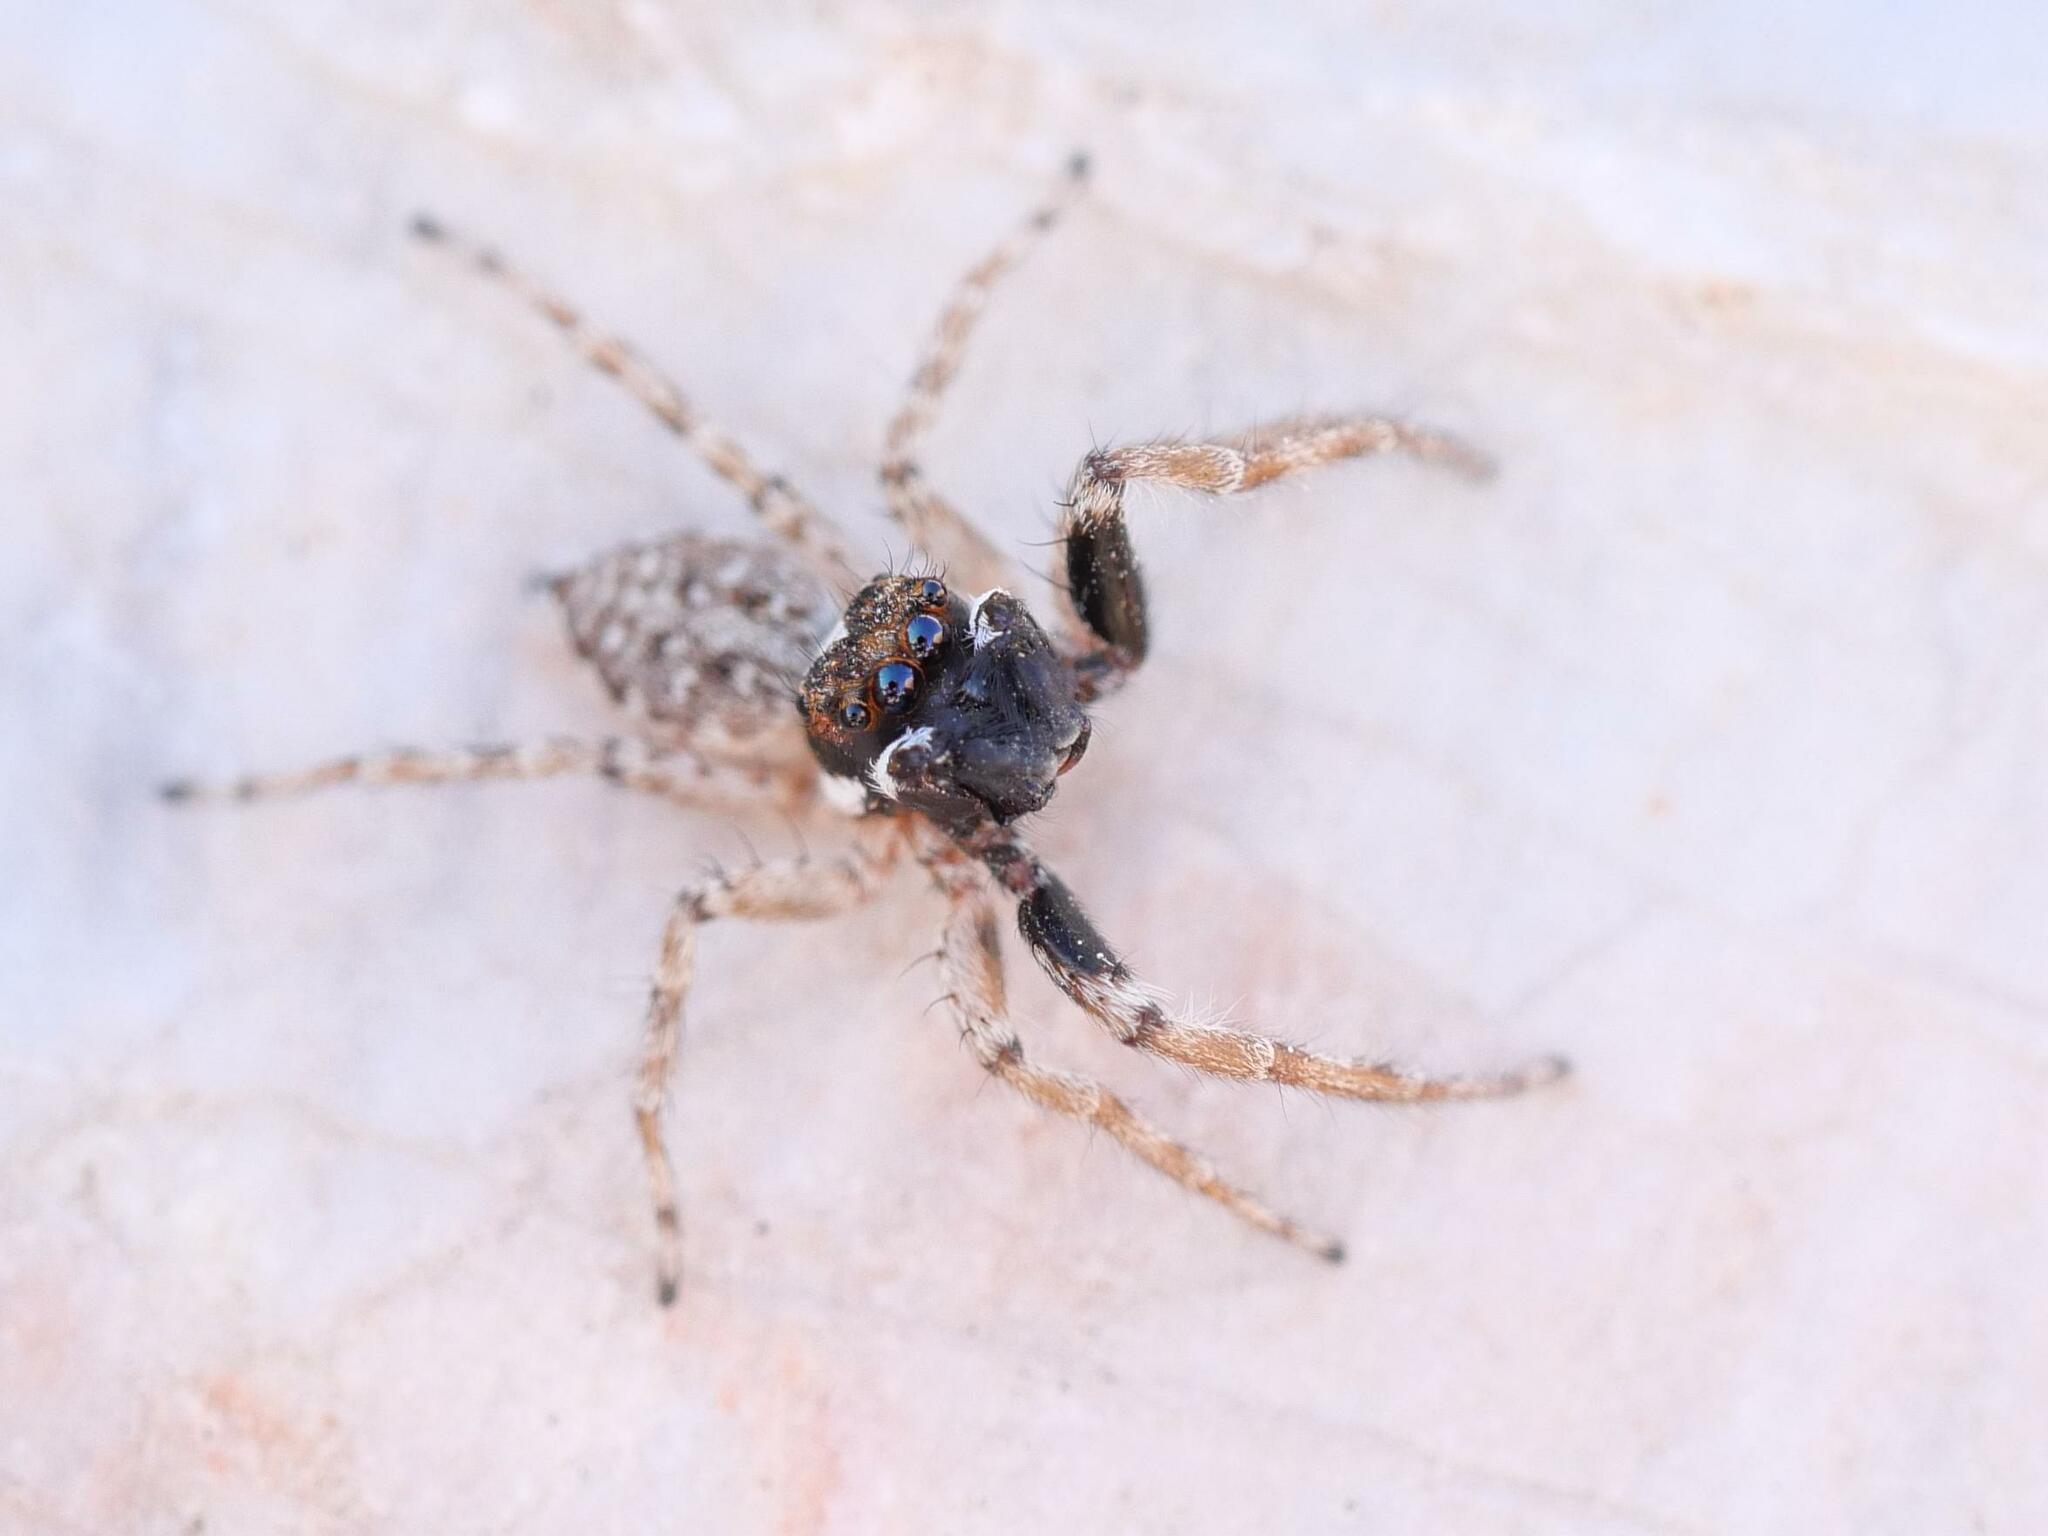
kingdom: Animalia
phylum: Arthropoda
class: Arachnida
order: Araneae
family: Salticidae
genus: Menemerus
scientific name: Menemerus semilimbatus
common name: Jumping spider
